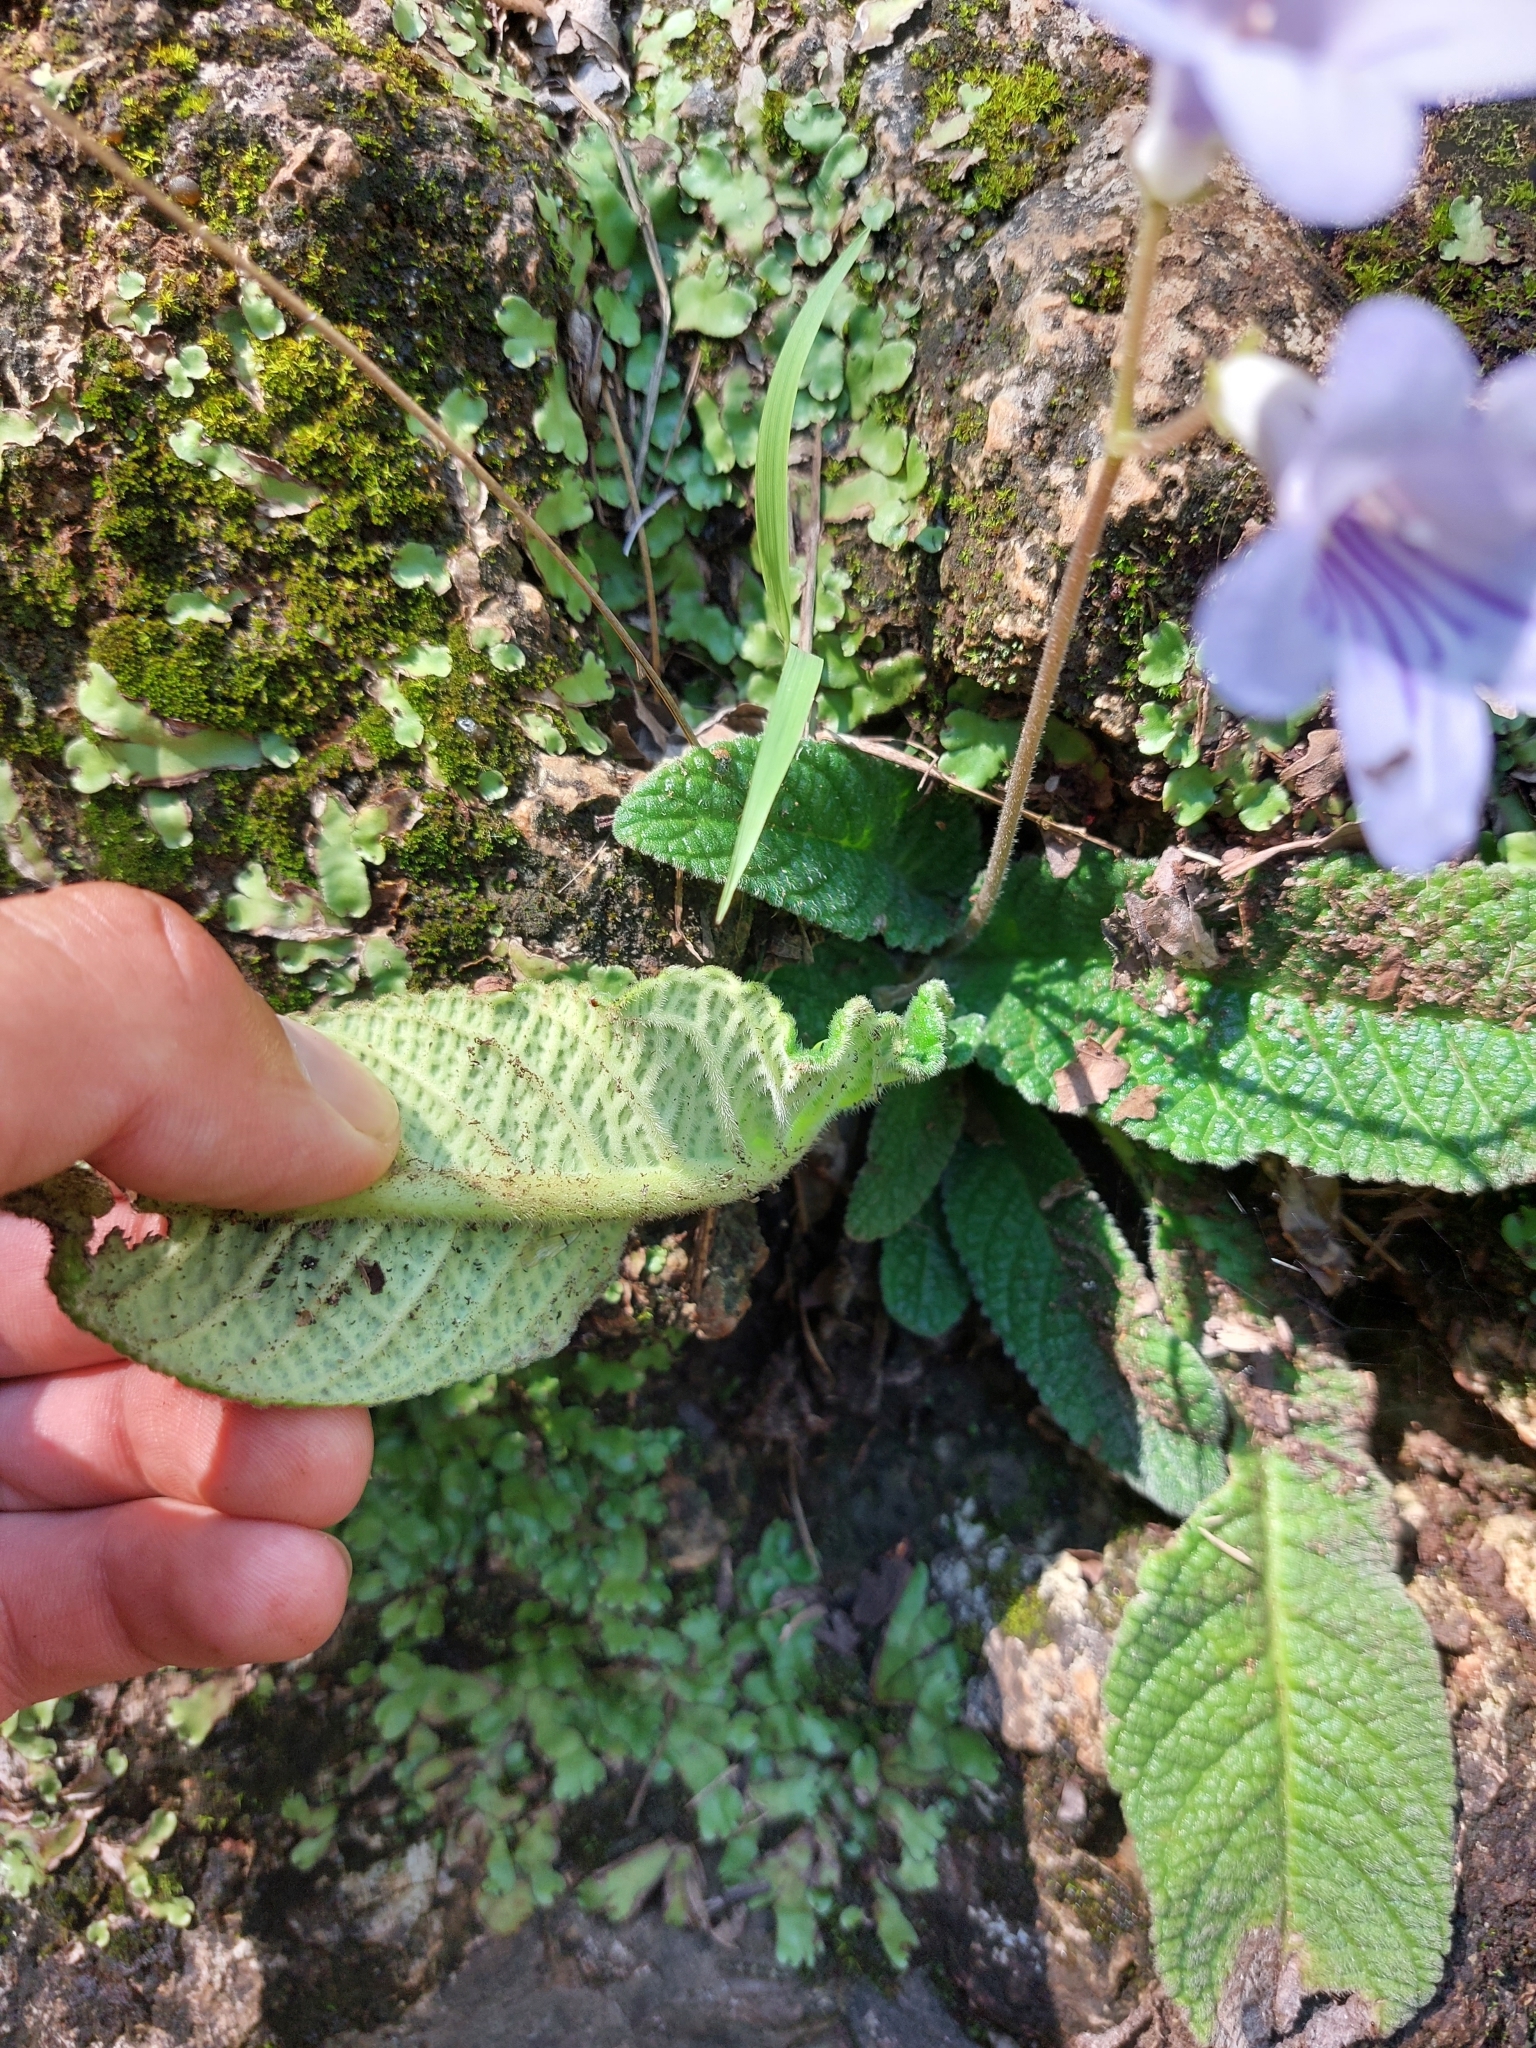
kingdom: Plantae
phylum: Tracheophyta
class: Magnoliopsida
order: Lamiales
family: Gesneriaceae
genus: Streptocarpus
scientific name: Streptocarpus cyaneus
